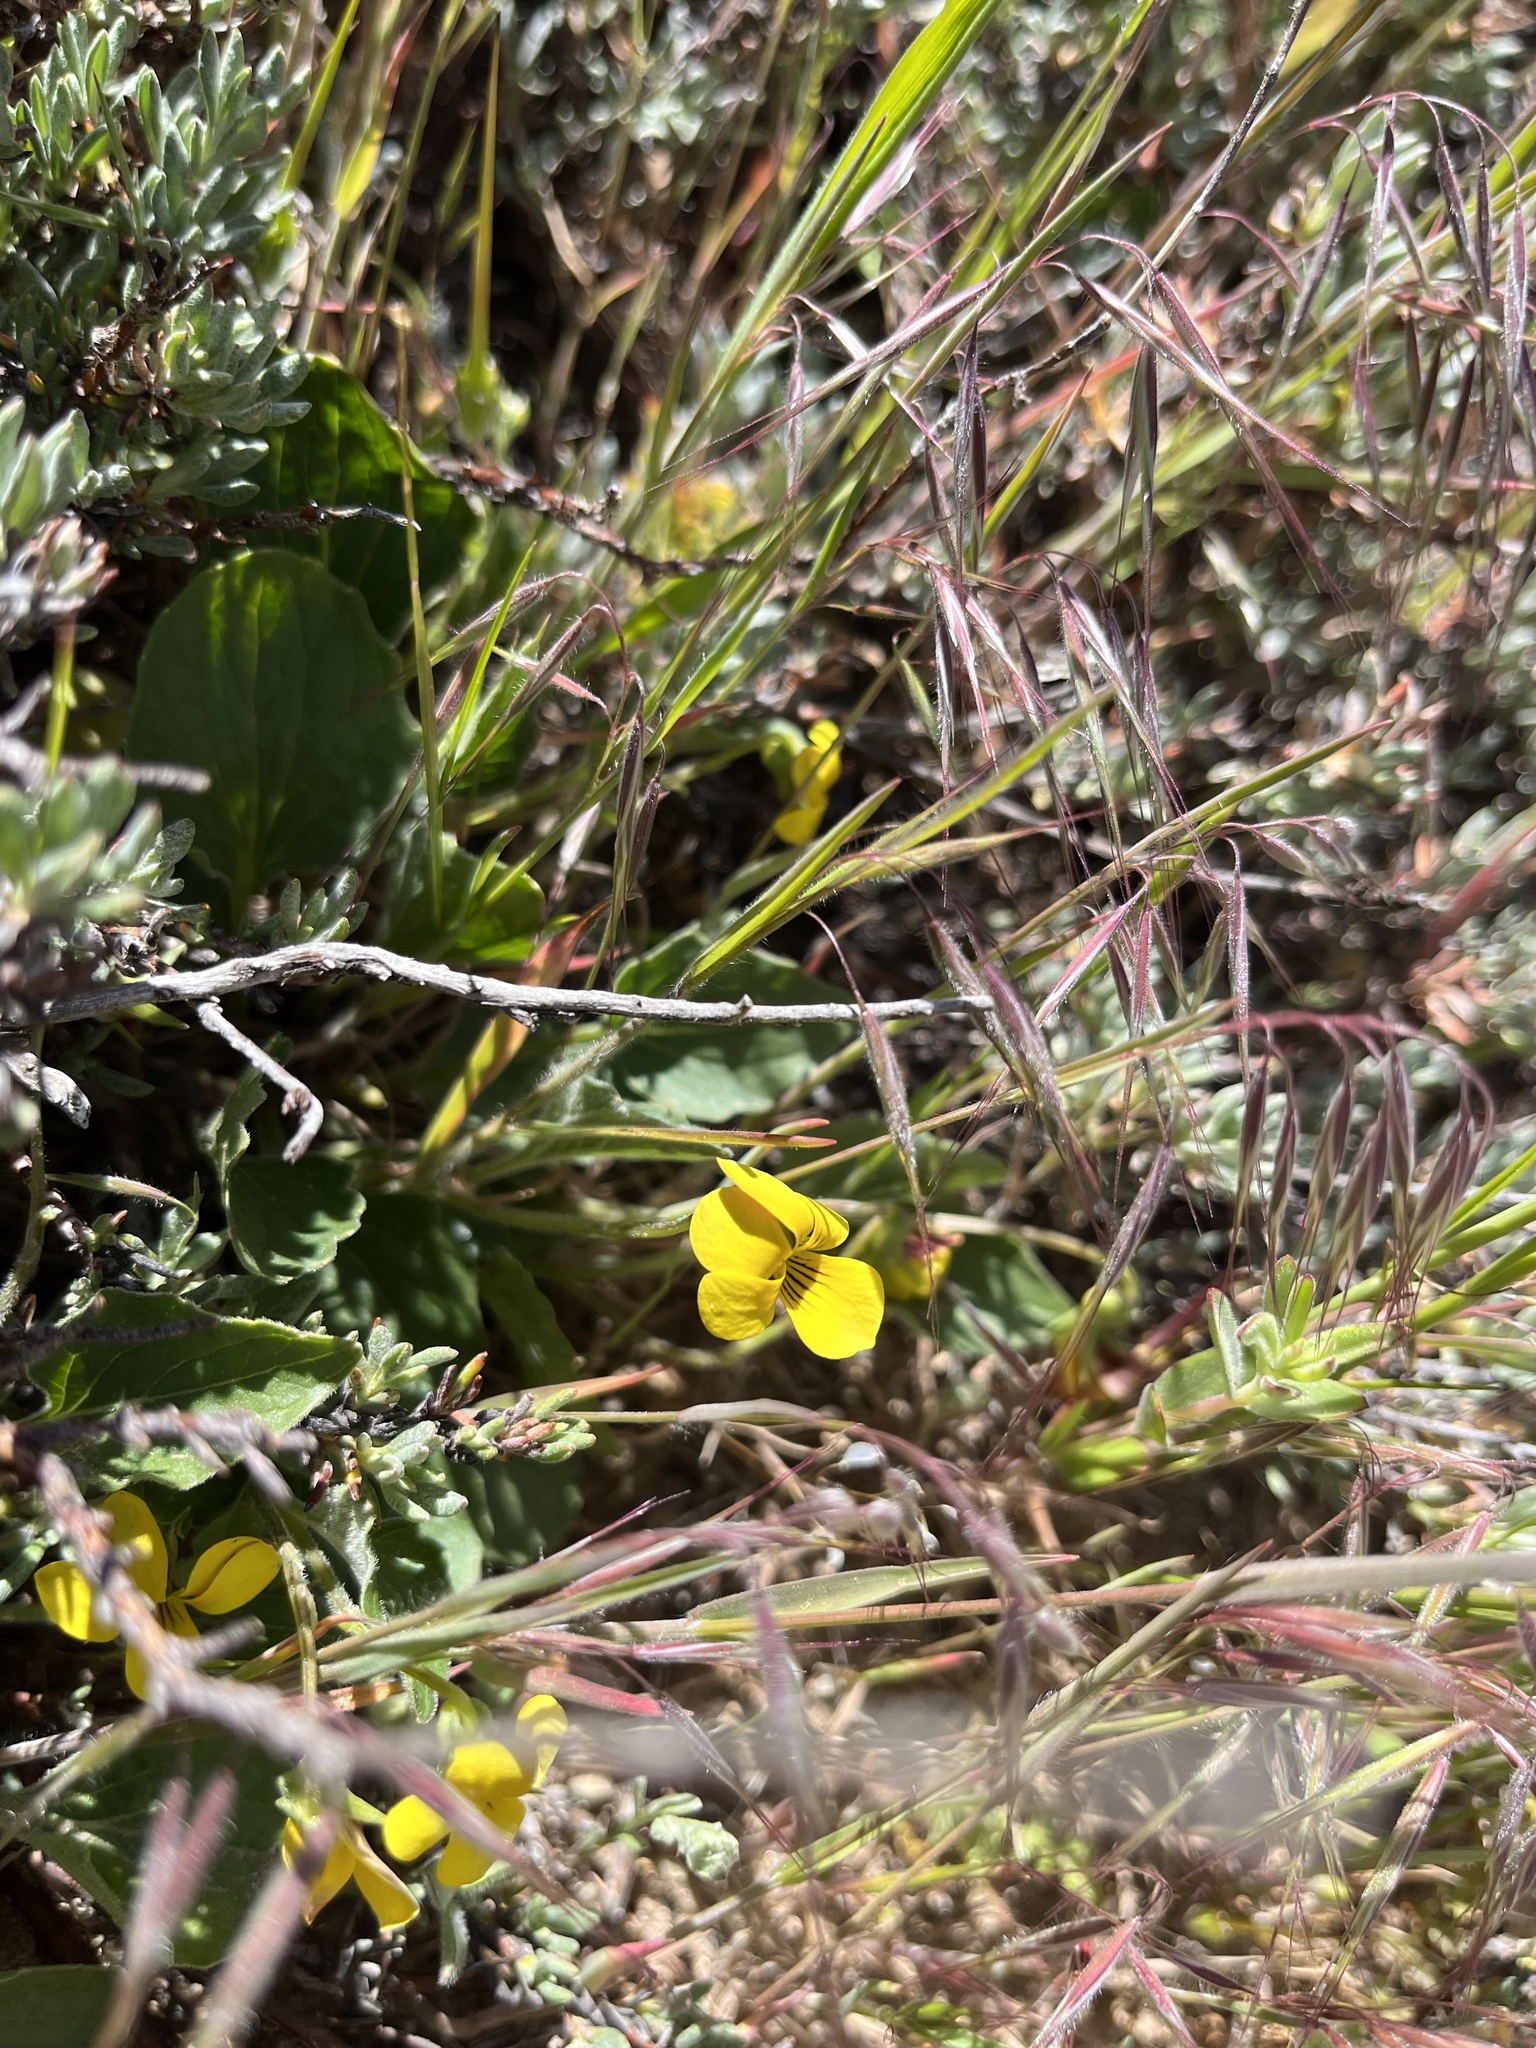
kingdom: Plantae
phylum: Tracheophyta
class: Magnoliopsida
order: Malpighiales
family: Violaceae
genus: Viola
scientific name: Viola purpurea
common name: Pine violet
